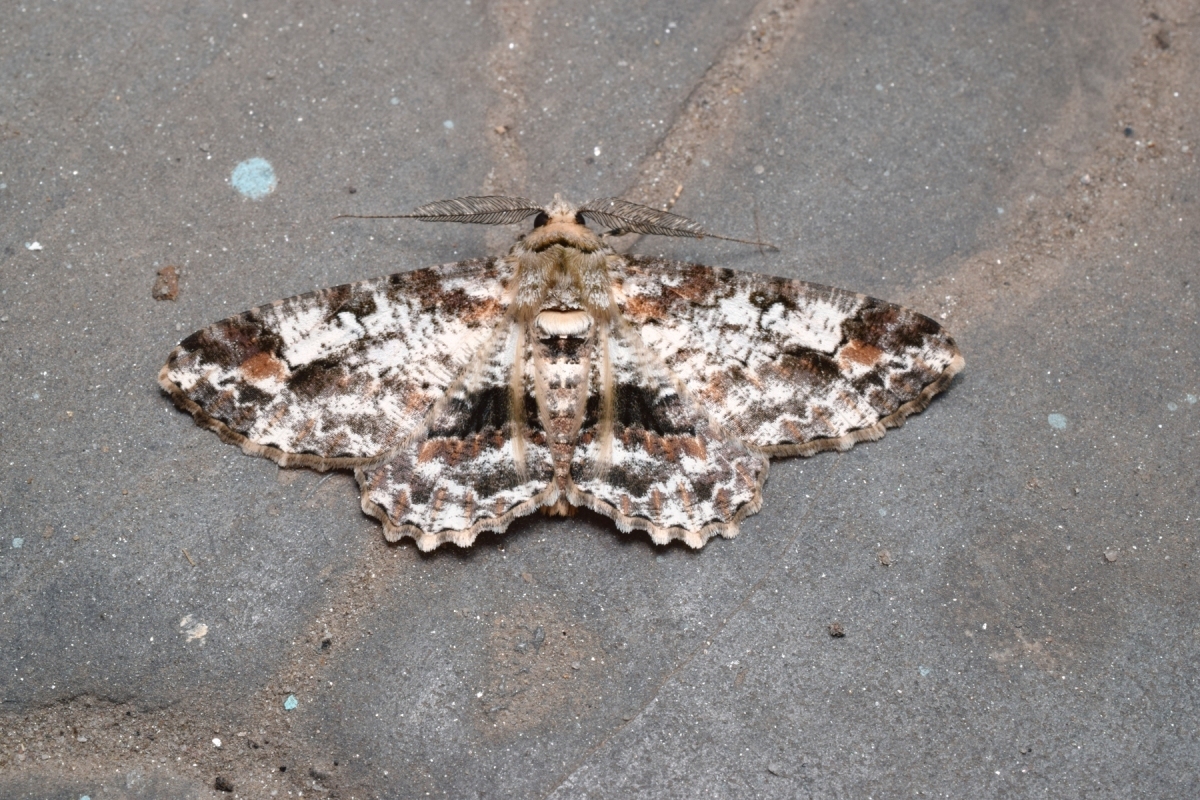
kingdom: Animalia
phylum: Arthropoda
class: Insecta
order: Lepidoptera
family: Geometridae
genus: Cleora
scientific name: Cleora alienaria
